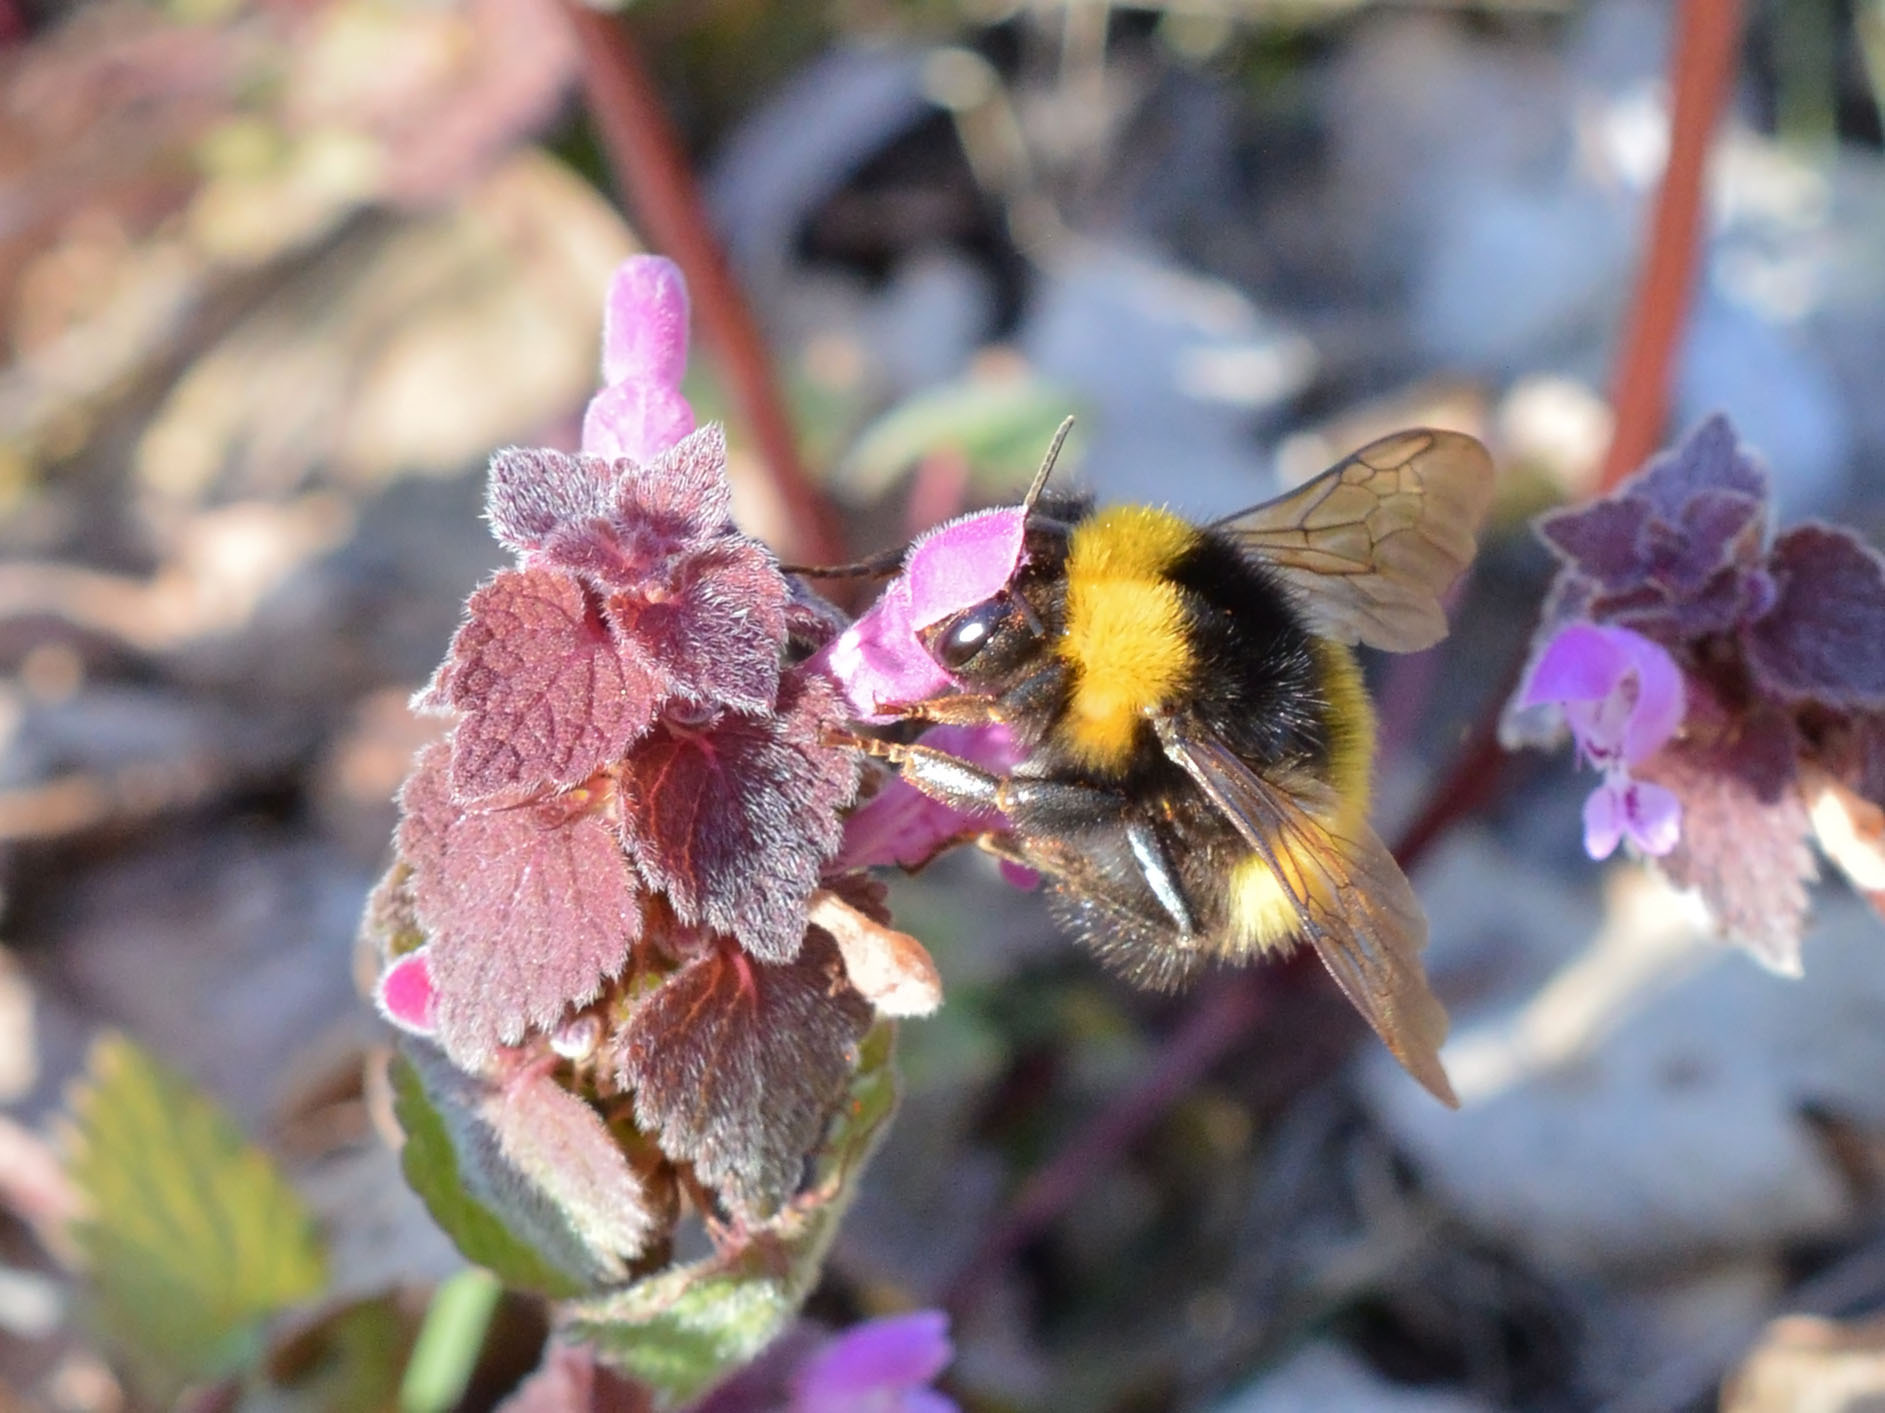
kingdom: Animalia
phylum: Arthropoda
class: Insecta
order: Hymenoptera
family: Apidae
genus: Bombus
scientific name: Bombus haematurus
